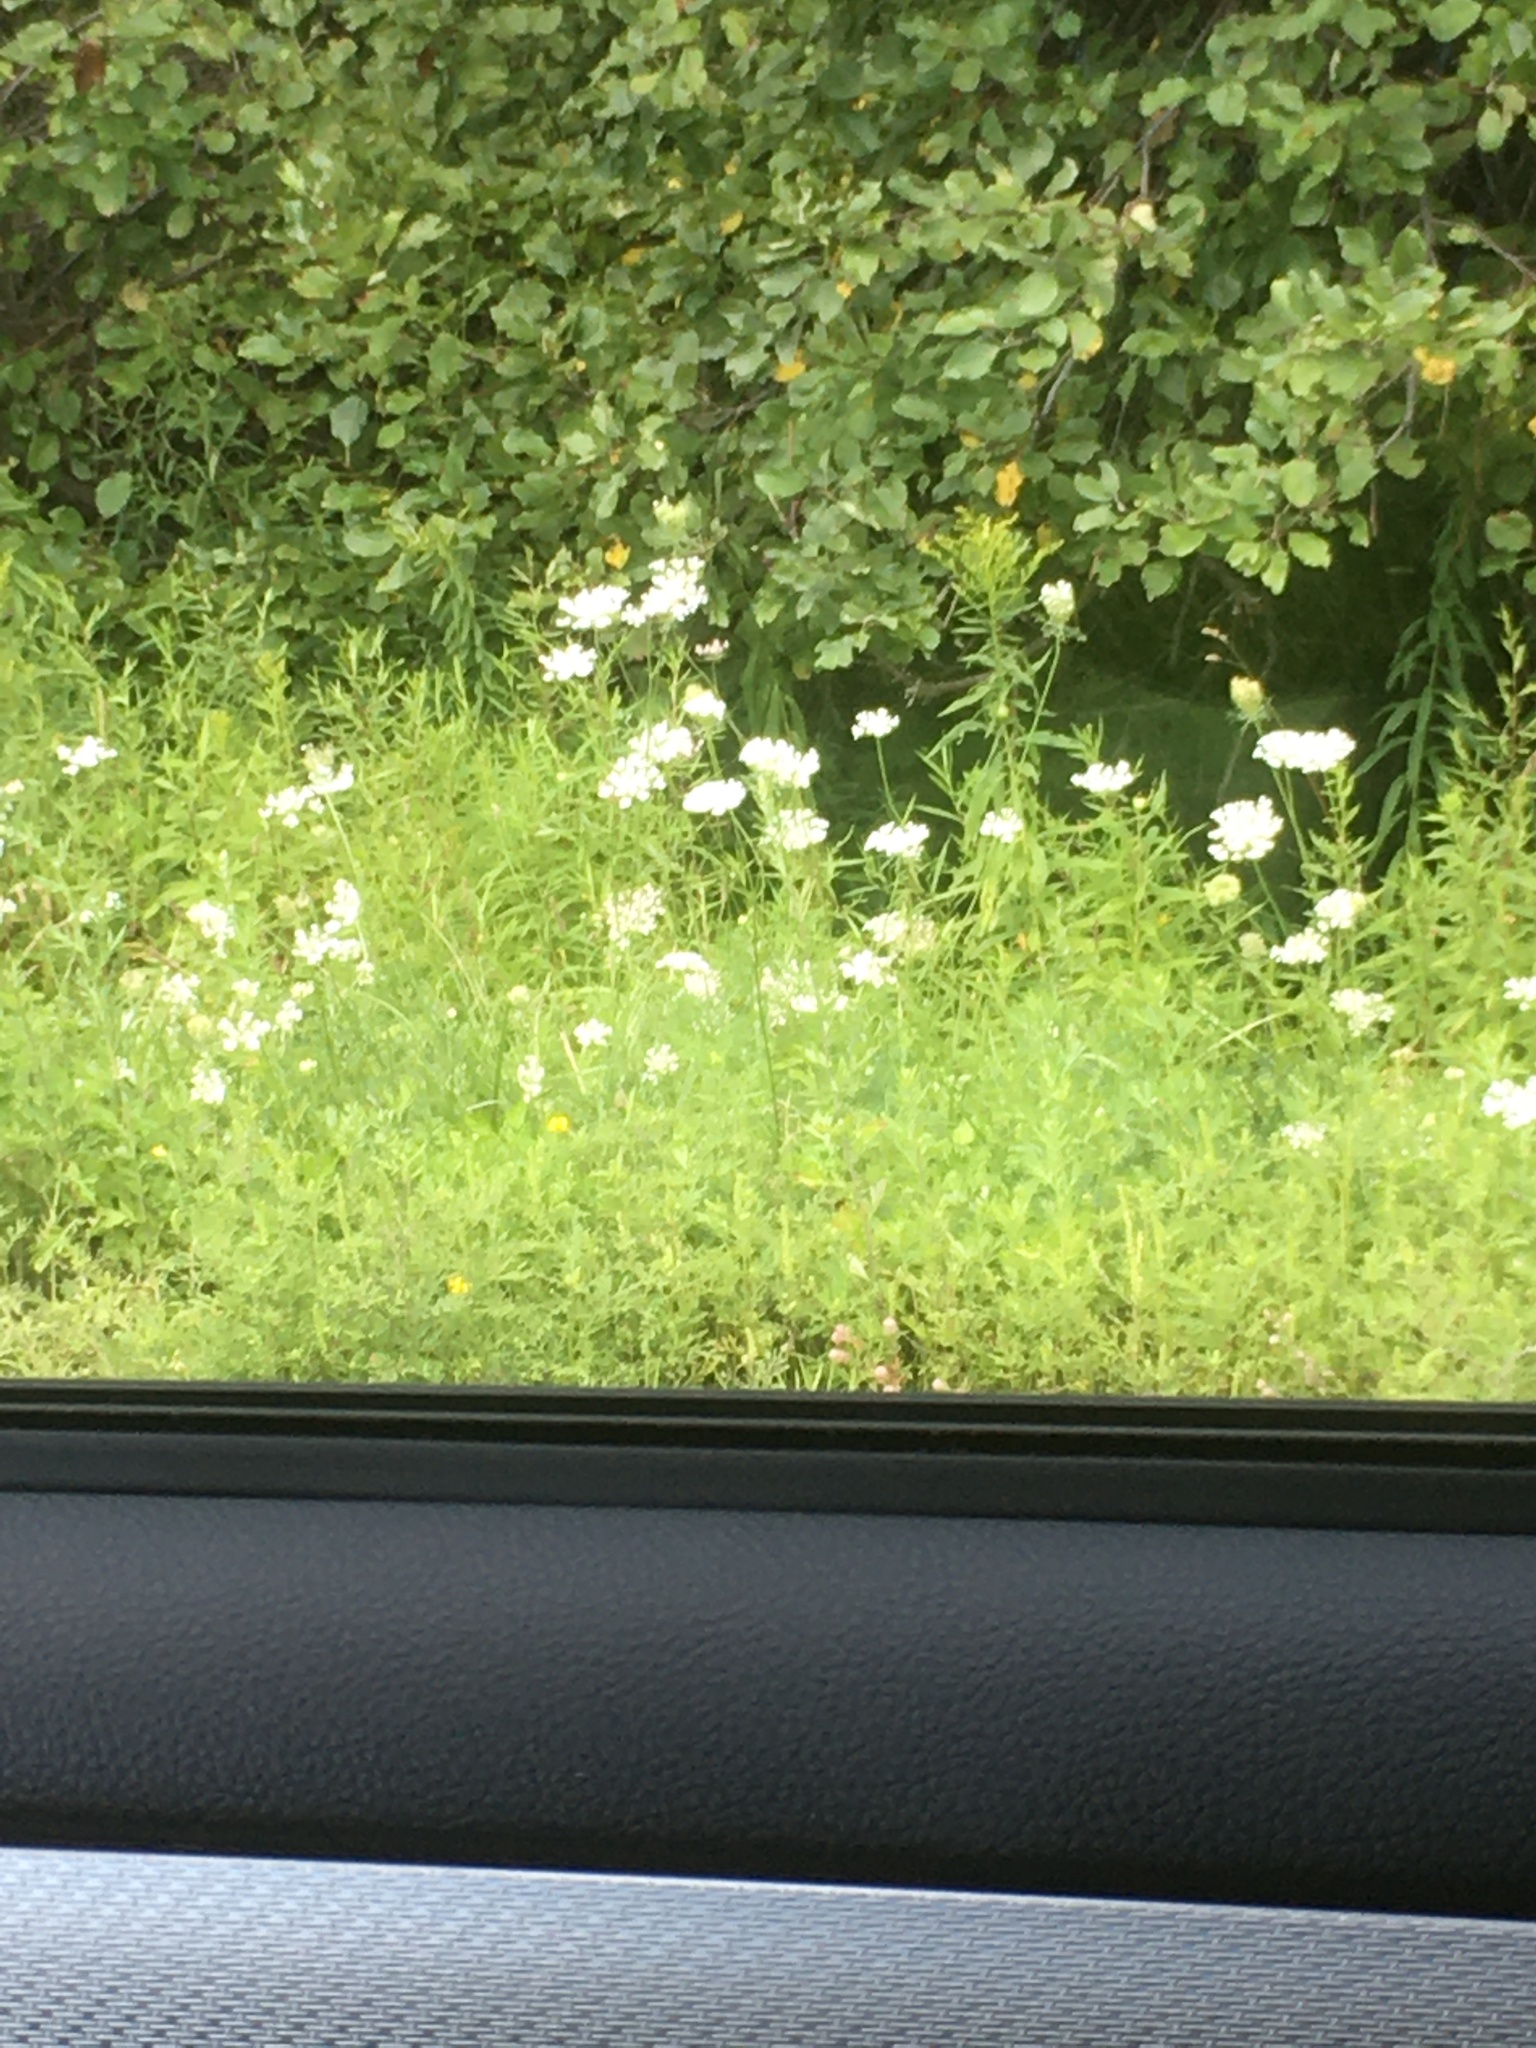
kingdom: Plantae
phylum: Tracheophyta
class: Magnoliopsida
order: Apiales
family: Apiaceae
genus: Daucus
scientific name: Daucus carota
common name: Wild carrot
